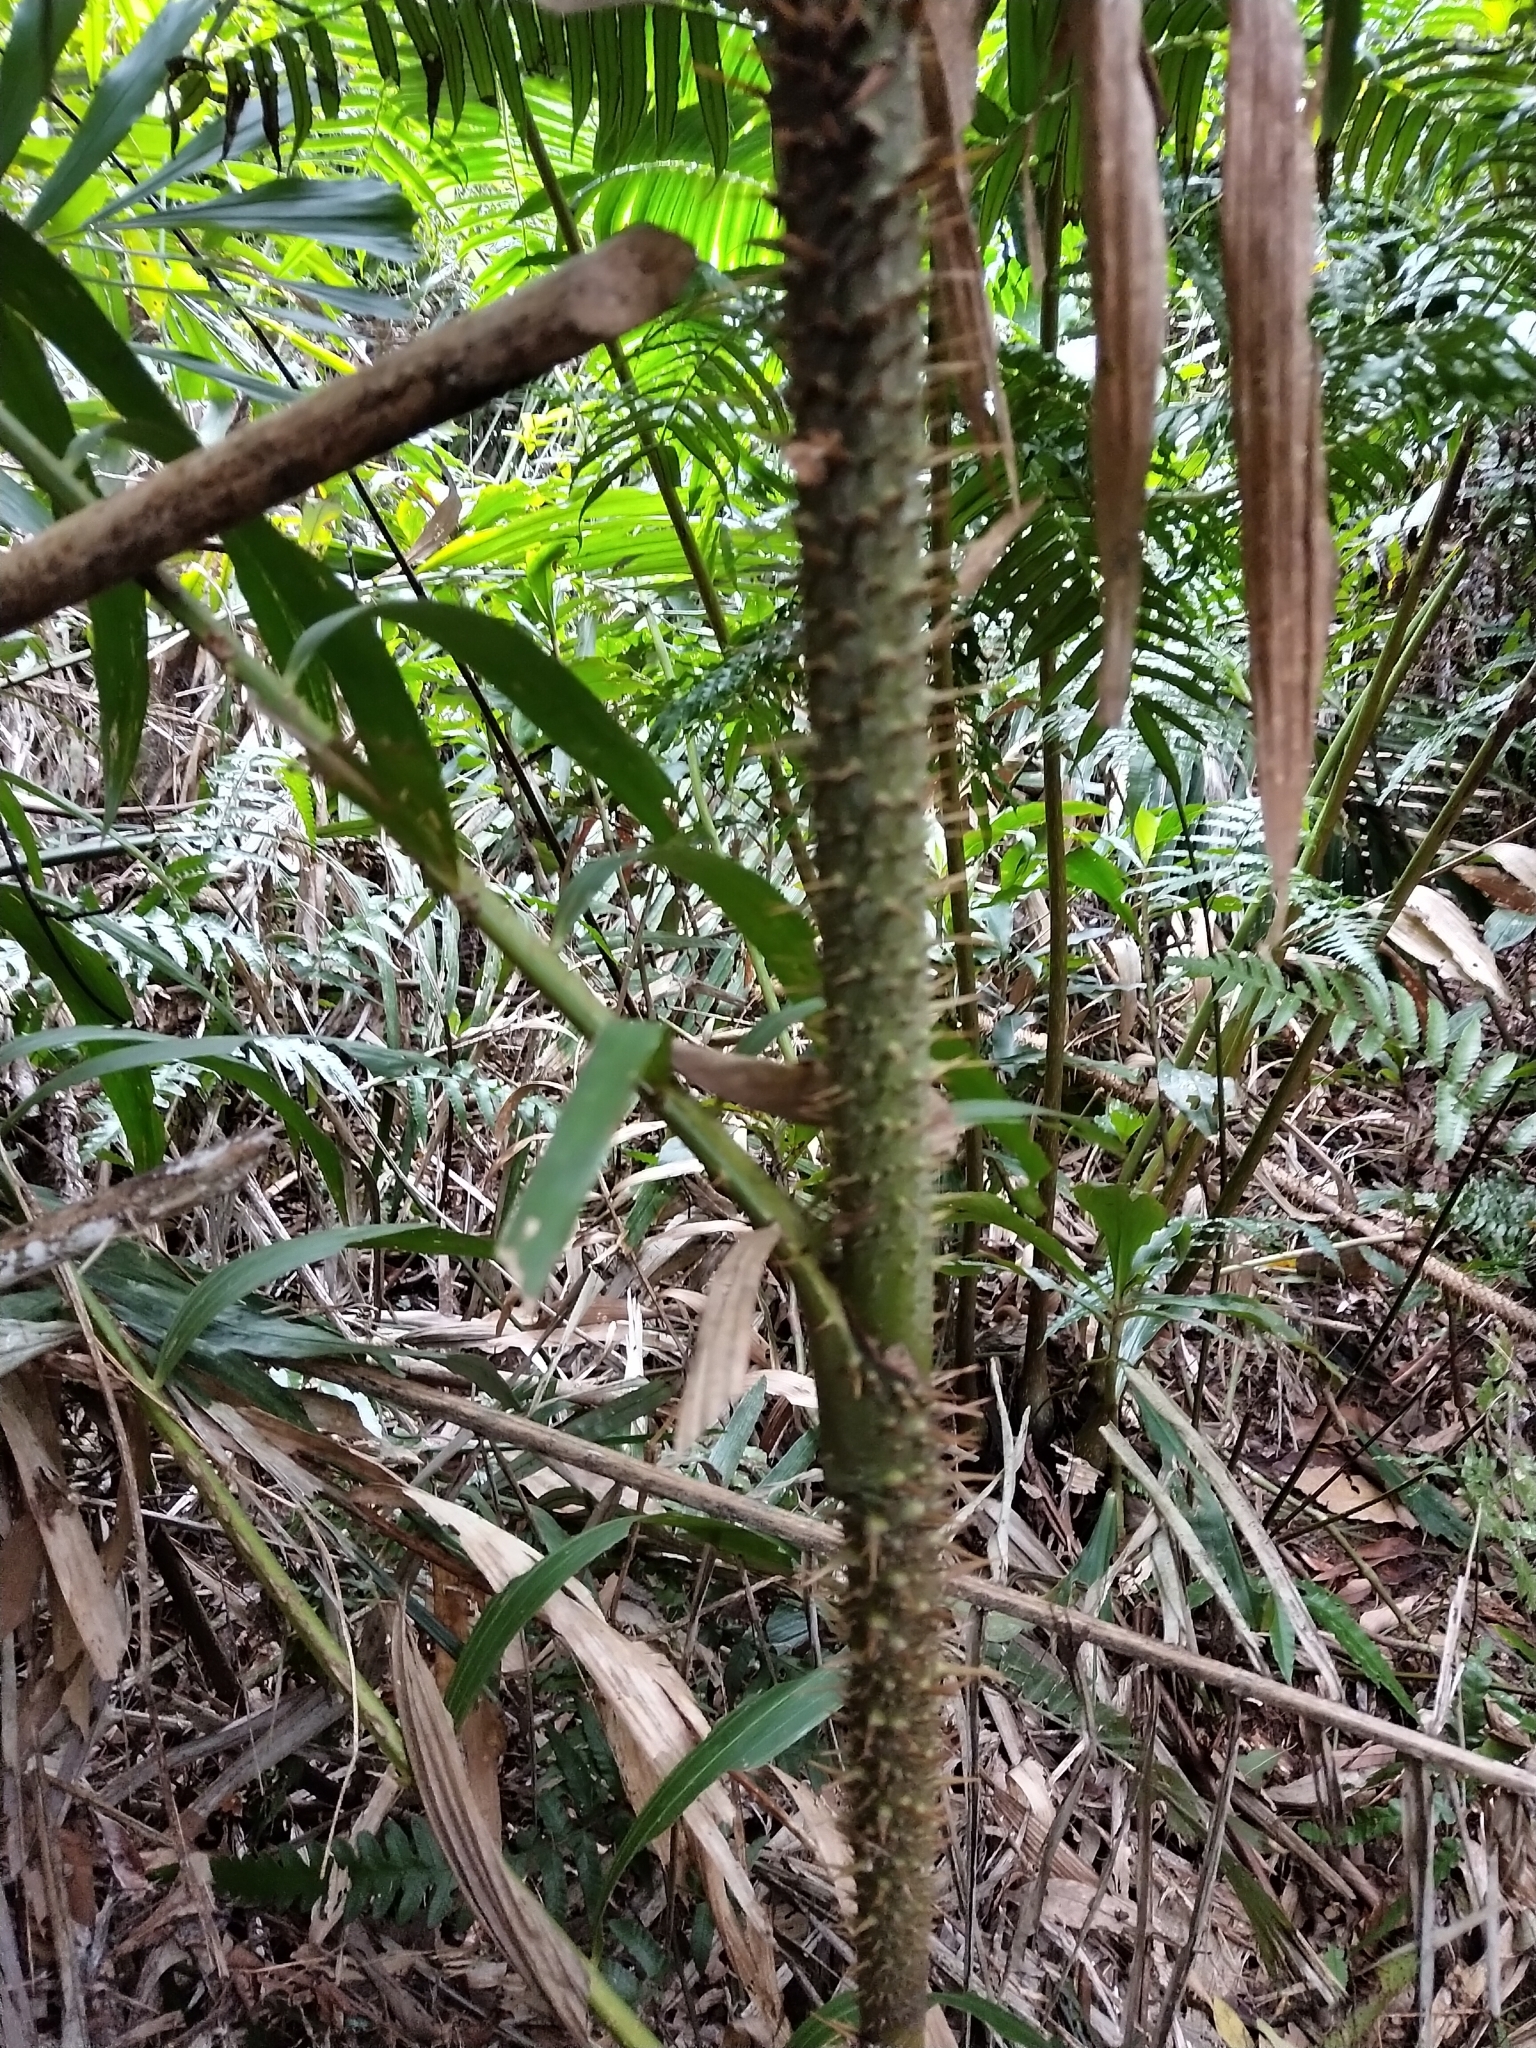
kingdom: Plantae
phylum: Tracheophyta
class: Liliopsida
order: Arecales
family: Arecaceae
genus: Calamus
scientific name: Calamus formosanus
